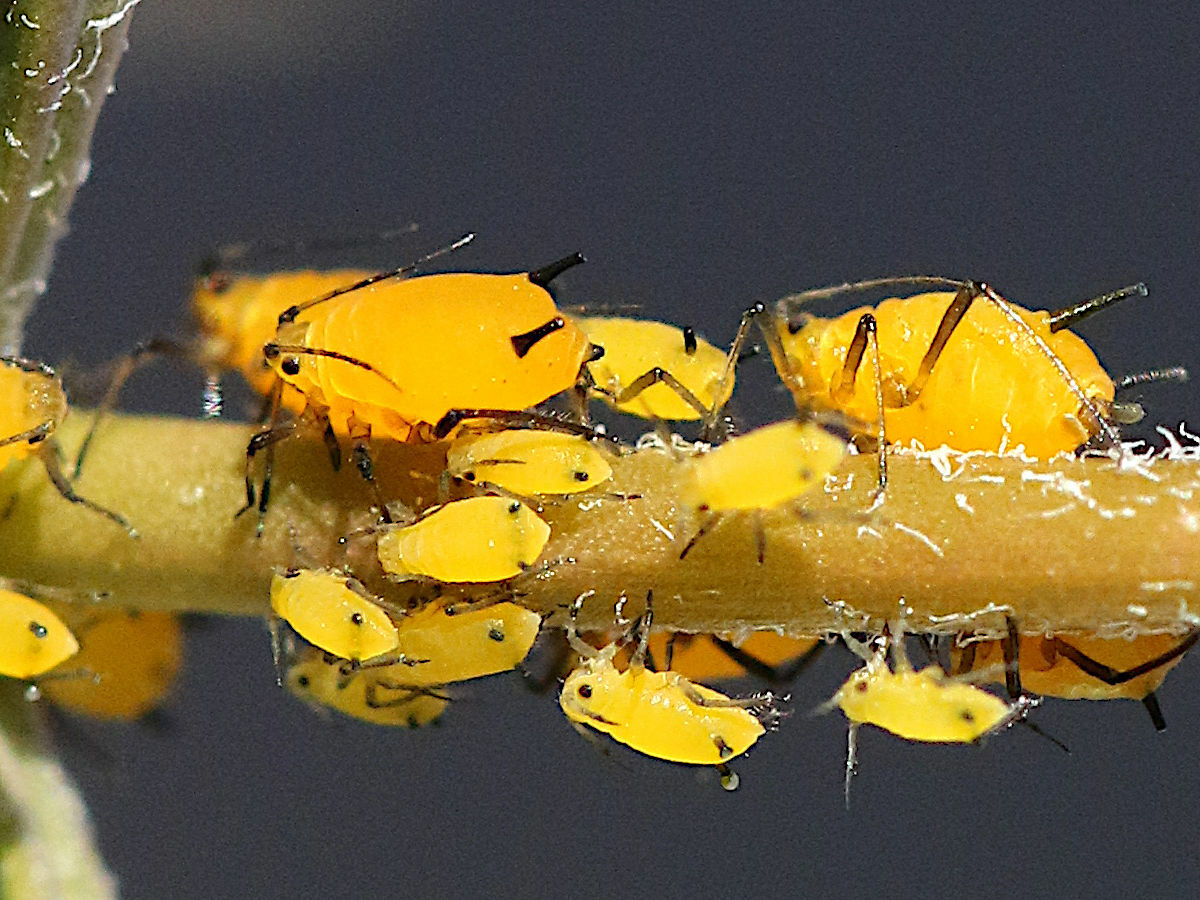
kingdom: Animalia
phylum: Arthropoda
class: Insecta
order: Hemiptera
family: Aphididae
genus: Aphis
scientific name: Aphis nerii
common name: Oleander aphid
